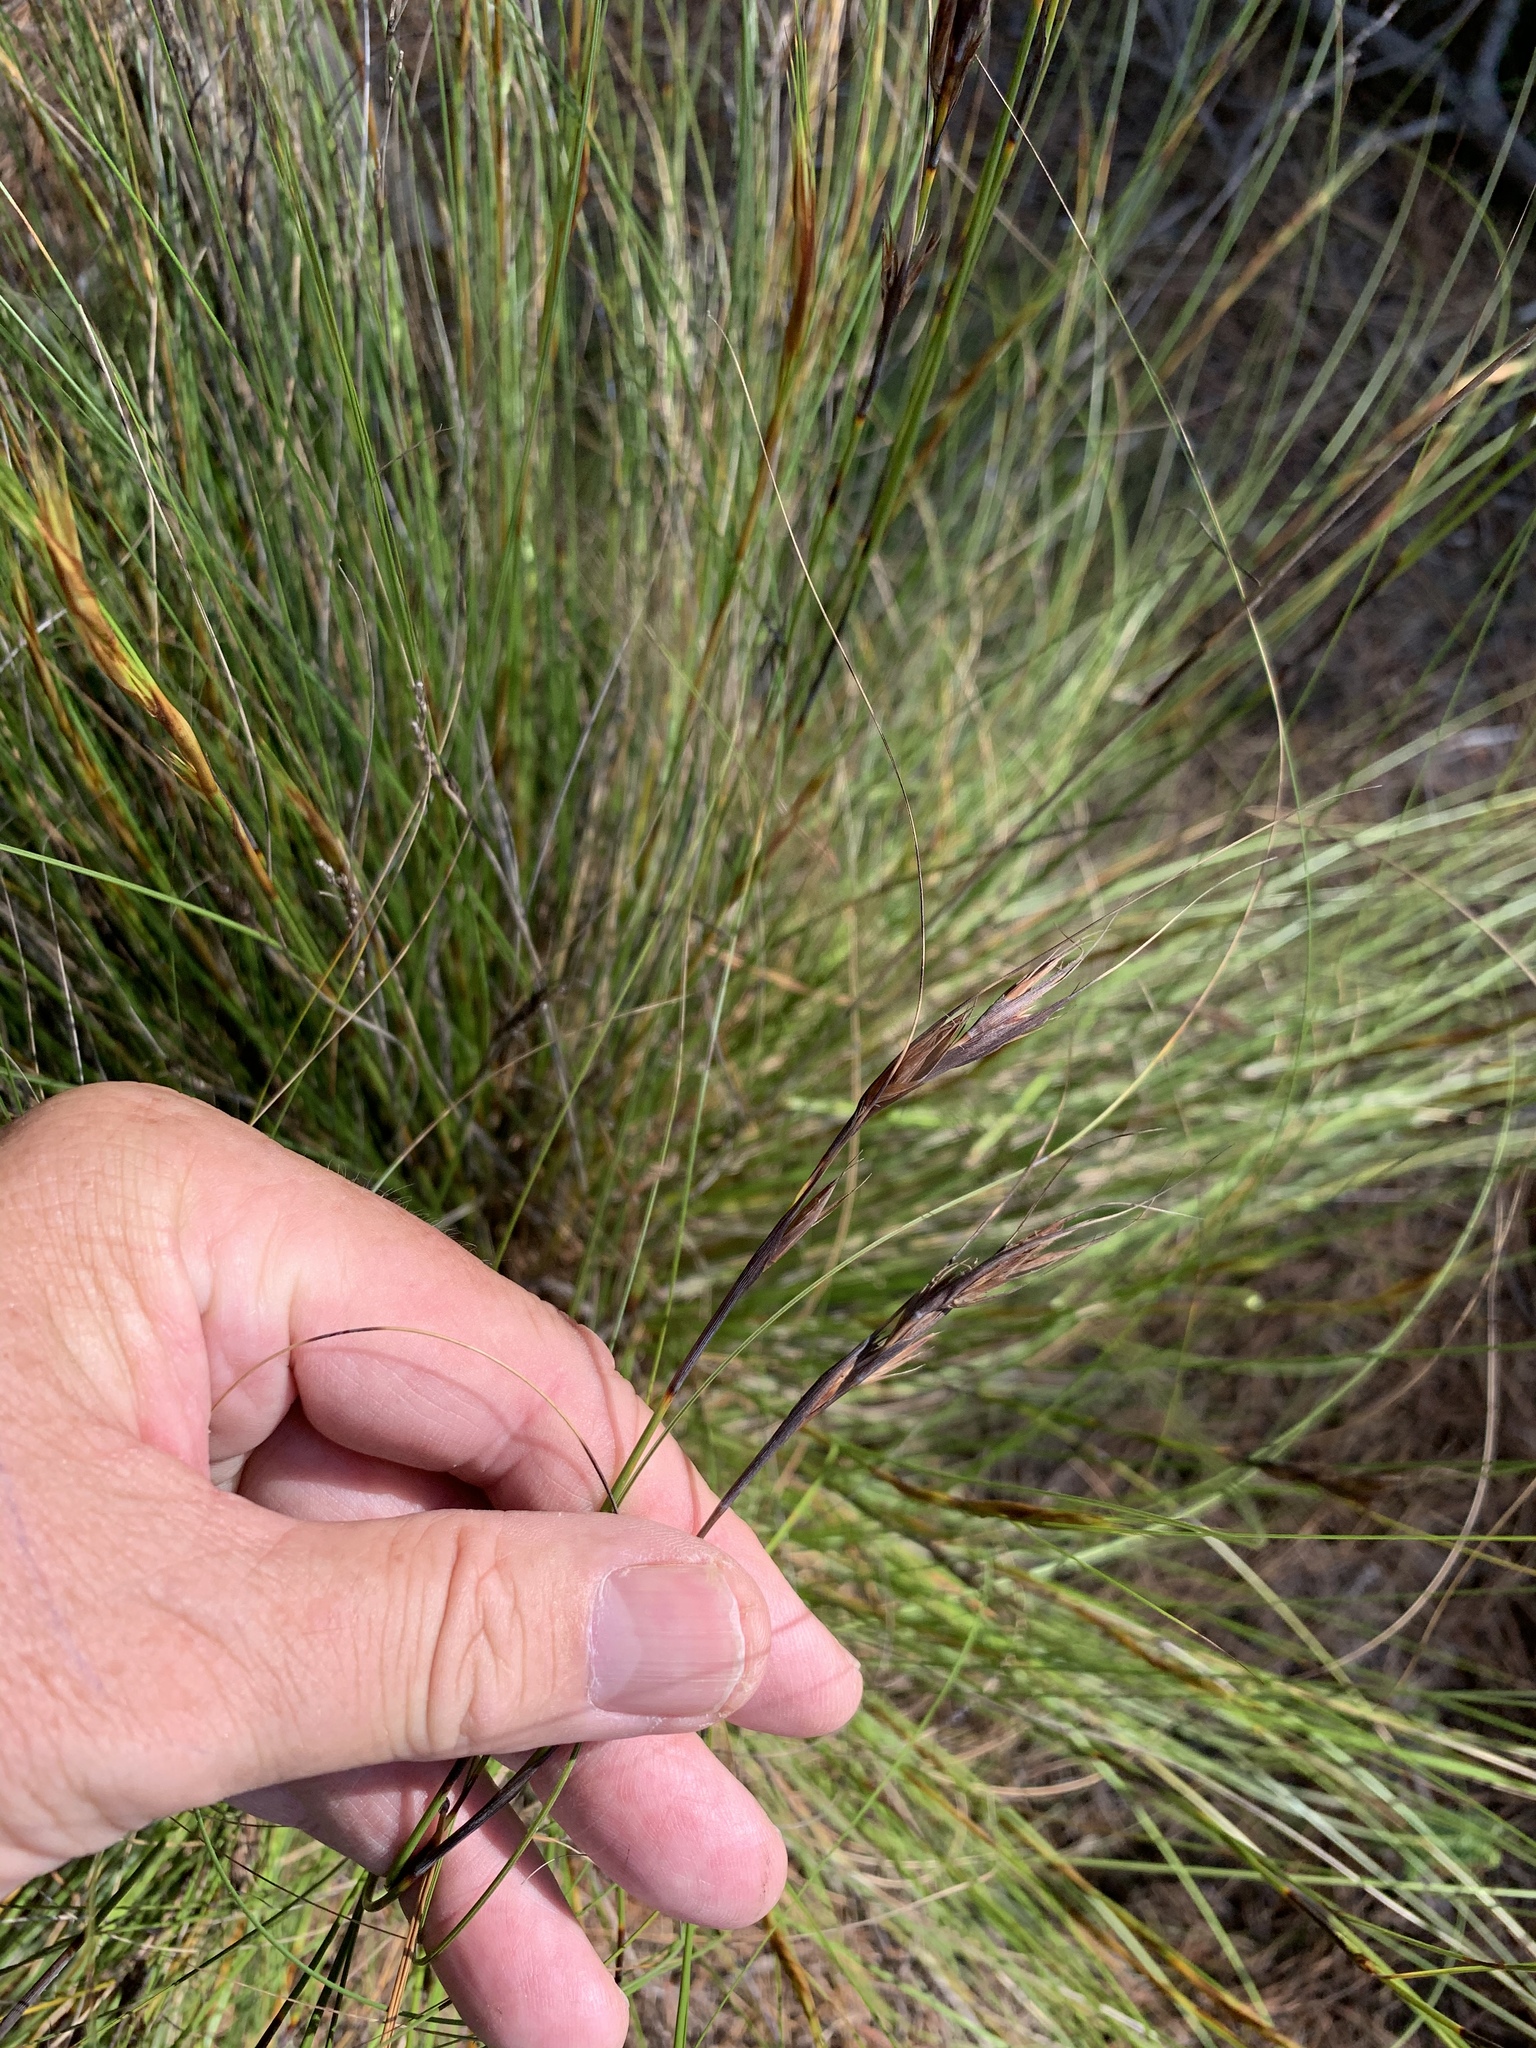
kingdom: Plantae
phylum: Tracheophyta
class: Liliopsida
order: Poales
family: Cyperaceae
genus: Tetraria
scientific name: Tetraria ustulata
